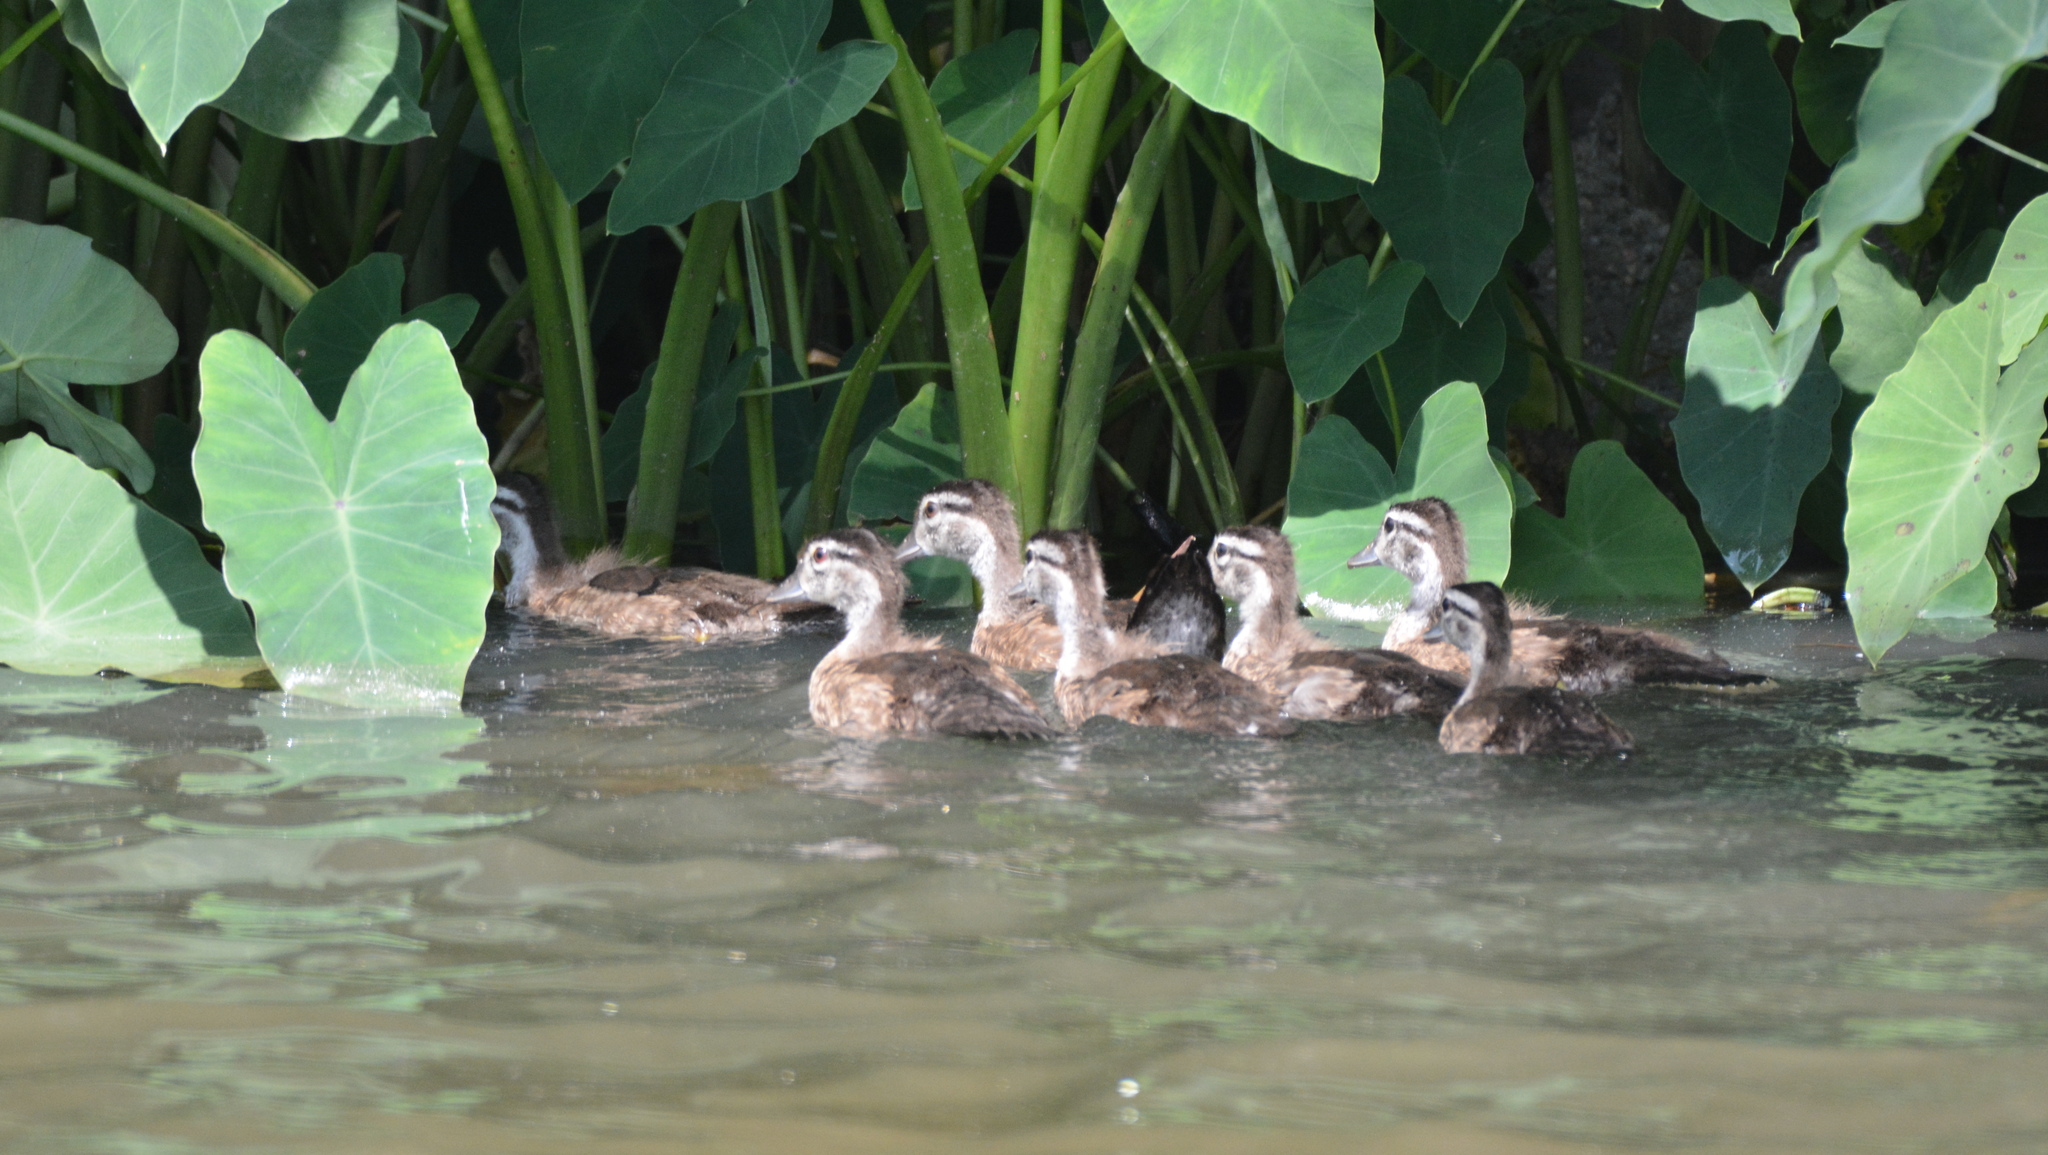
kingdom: Animalia
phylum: Chordata
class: Aves
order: Anseriformes
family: Anatidae
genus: Aix
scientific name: Aix sponsa
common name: Wood duck
